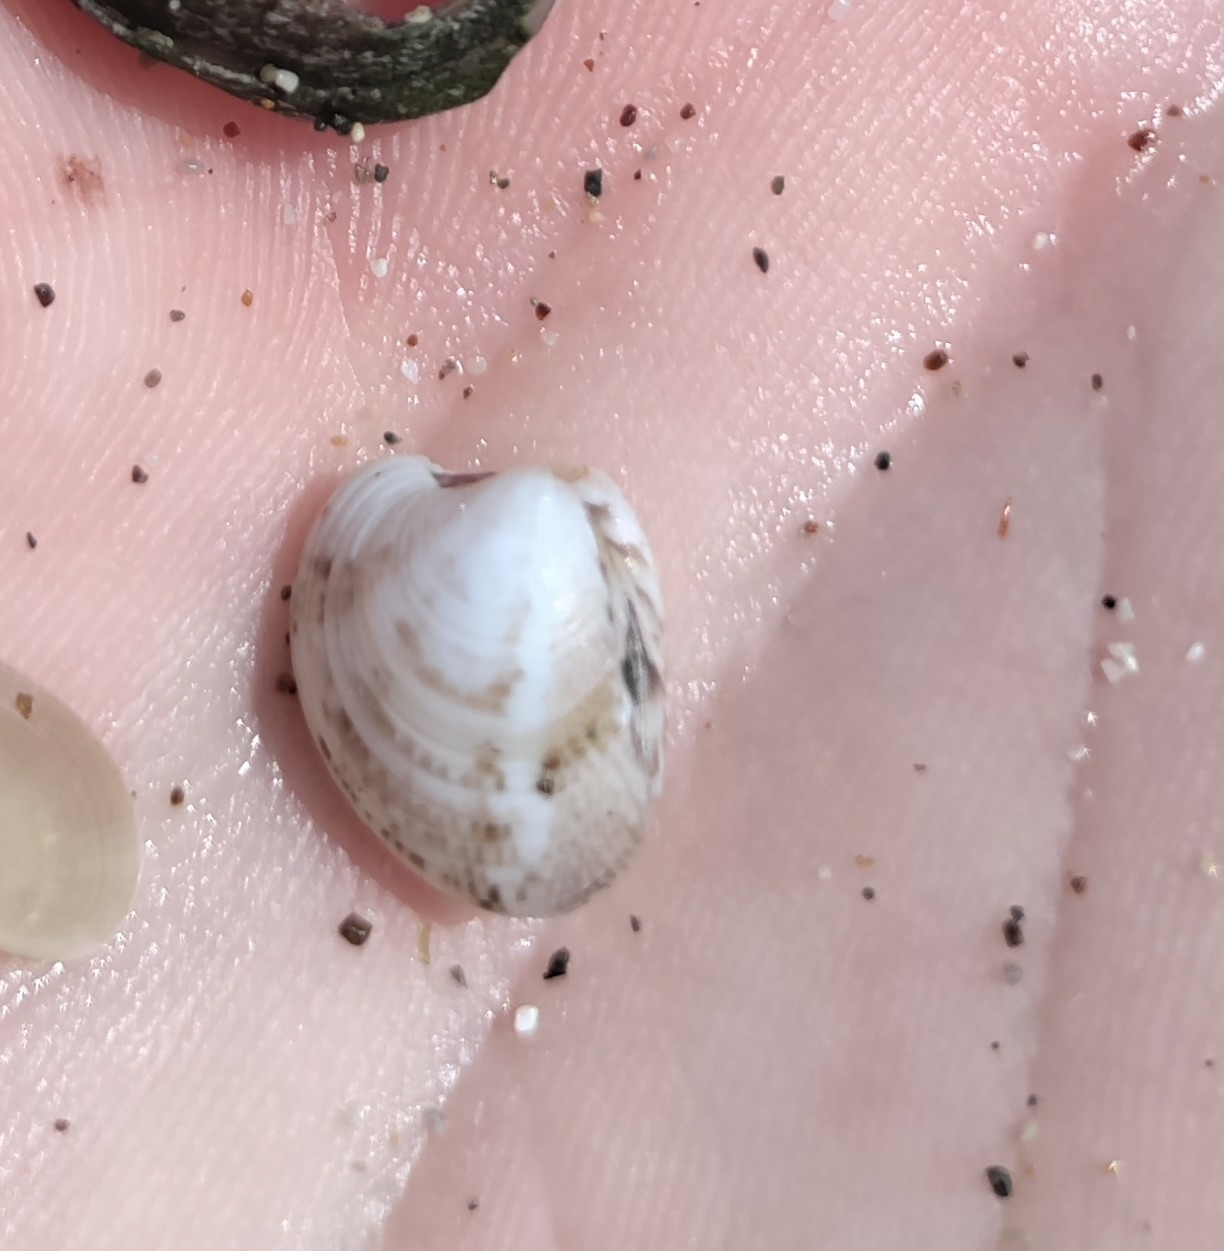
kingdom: Animalia
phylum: Mollusca
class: Bivalvia
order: Venerida
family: Veneridae
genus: Chamelea
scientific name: Chamelea gallina
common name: Chicken venus
